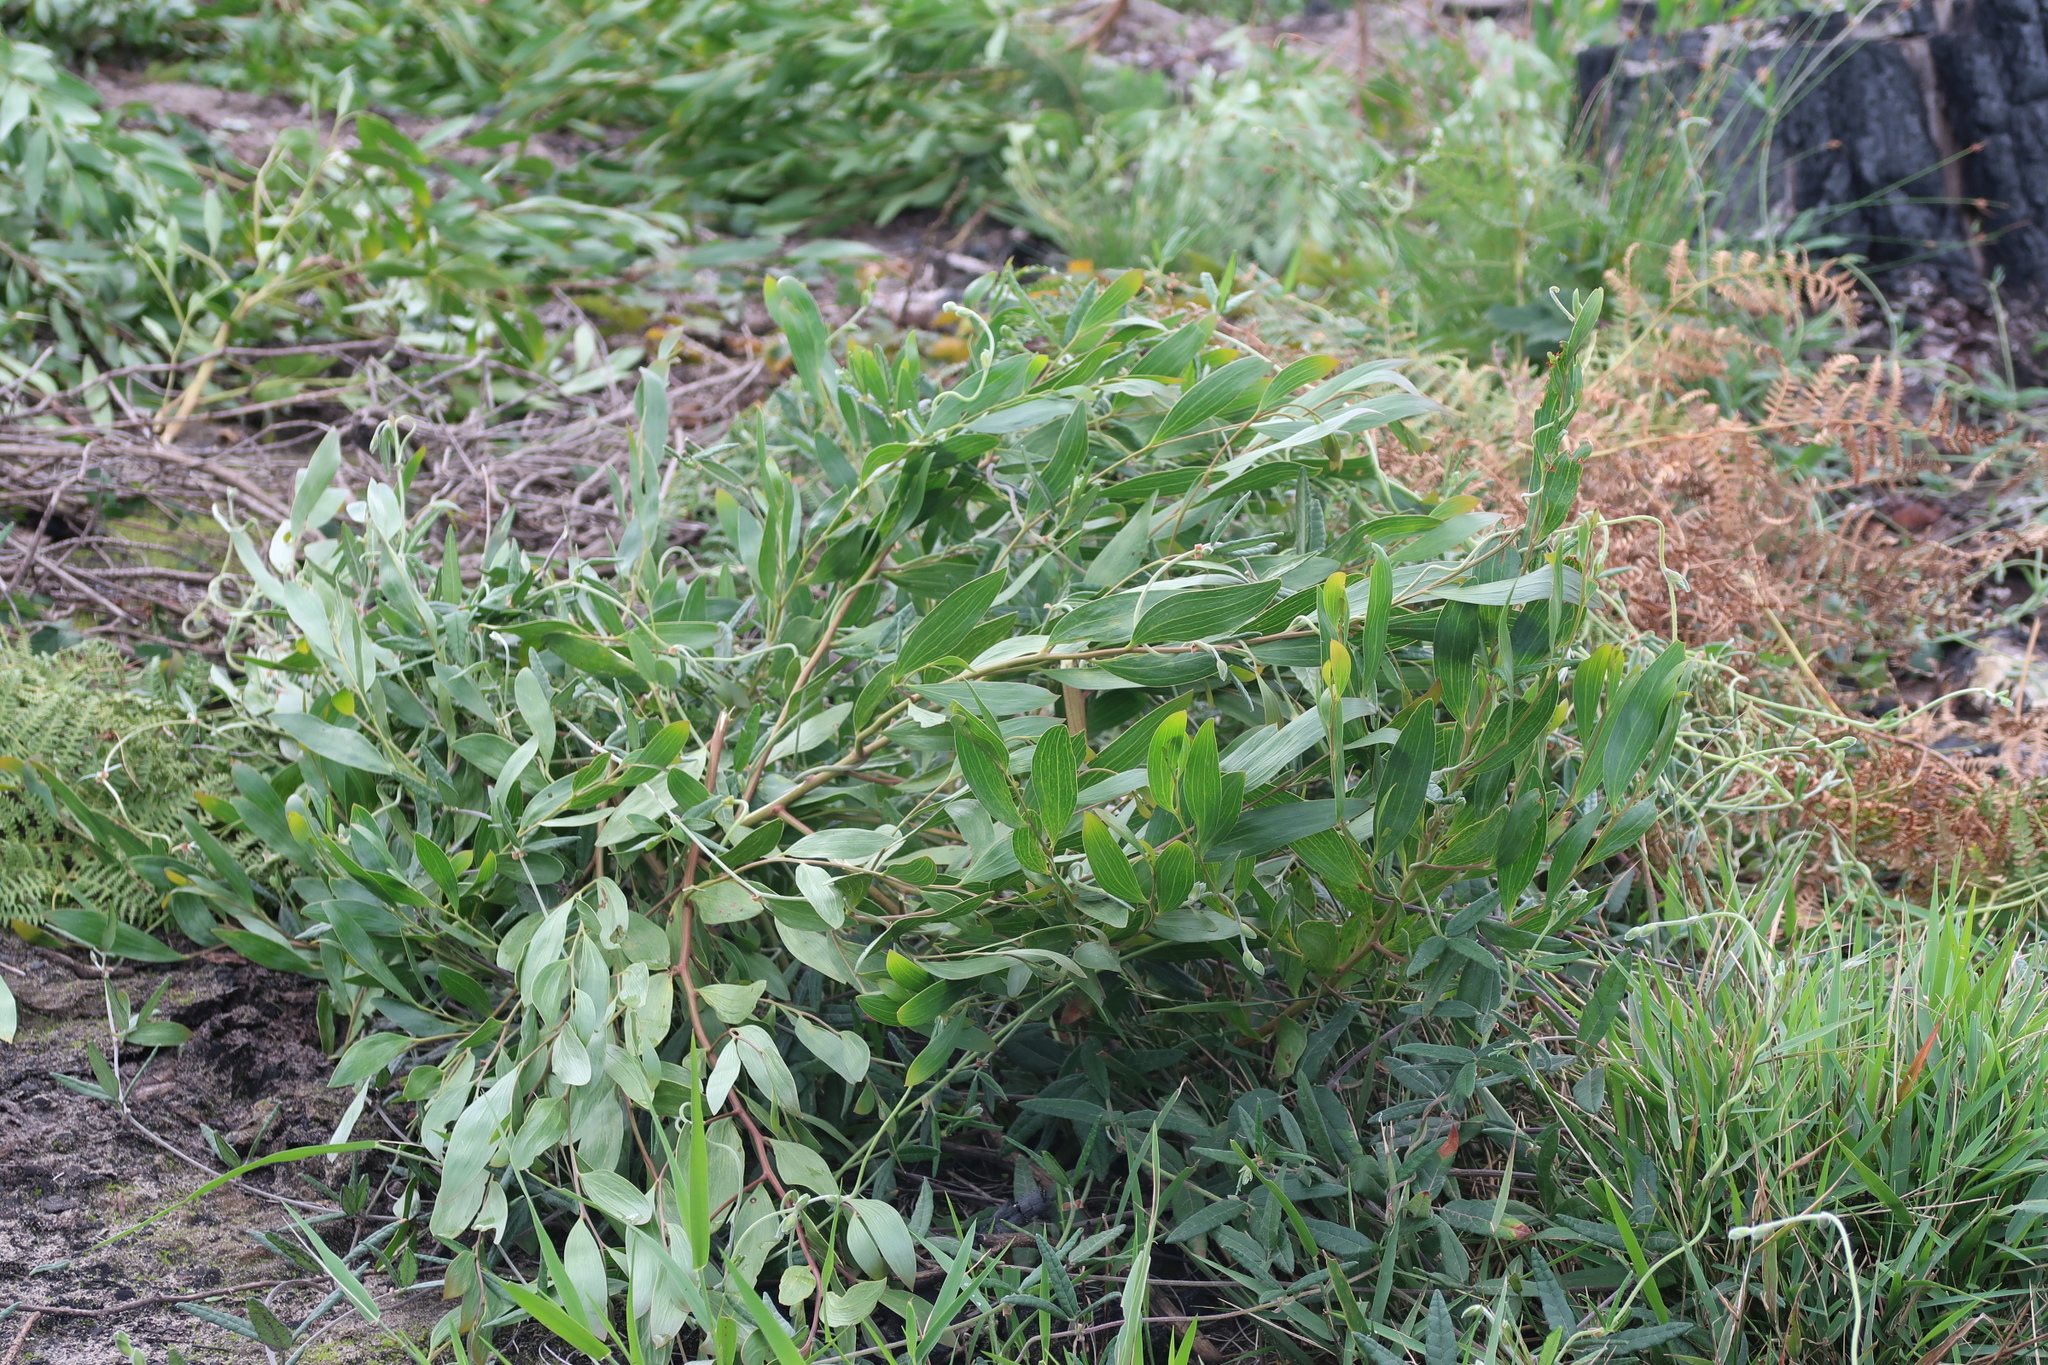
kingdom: Plantae
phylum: Tracheophyta
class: Magnoliopsida
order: Fabales
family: Fabaceae
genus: Acacia
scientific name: Acacia cyclops
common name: Coastal wattle
